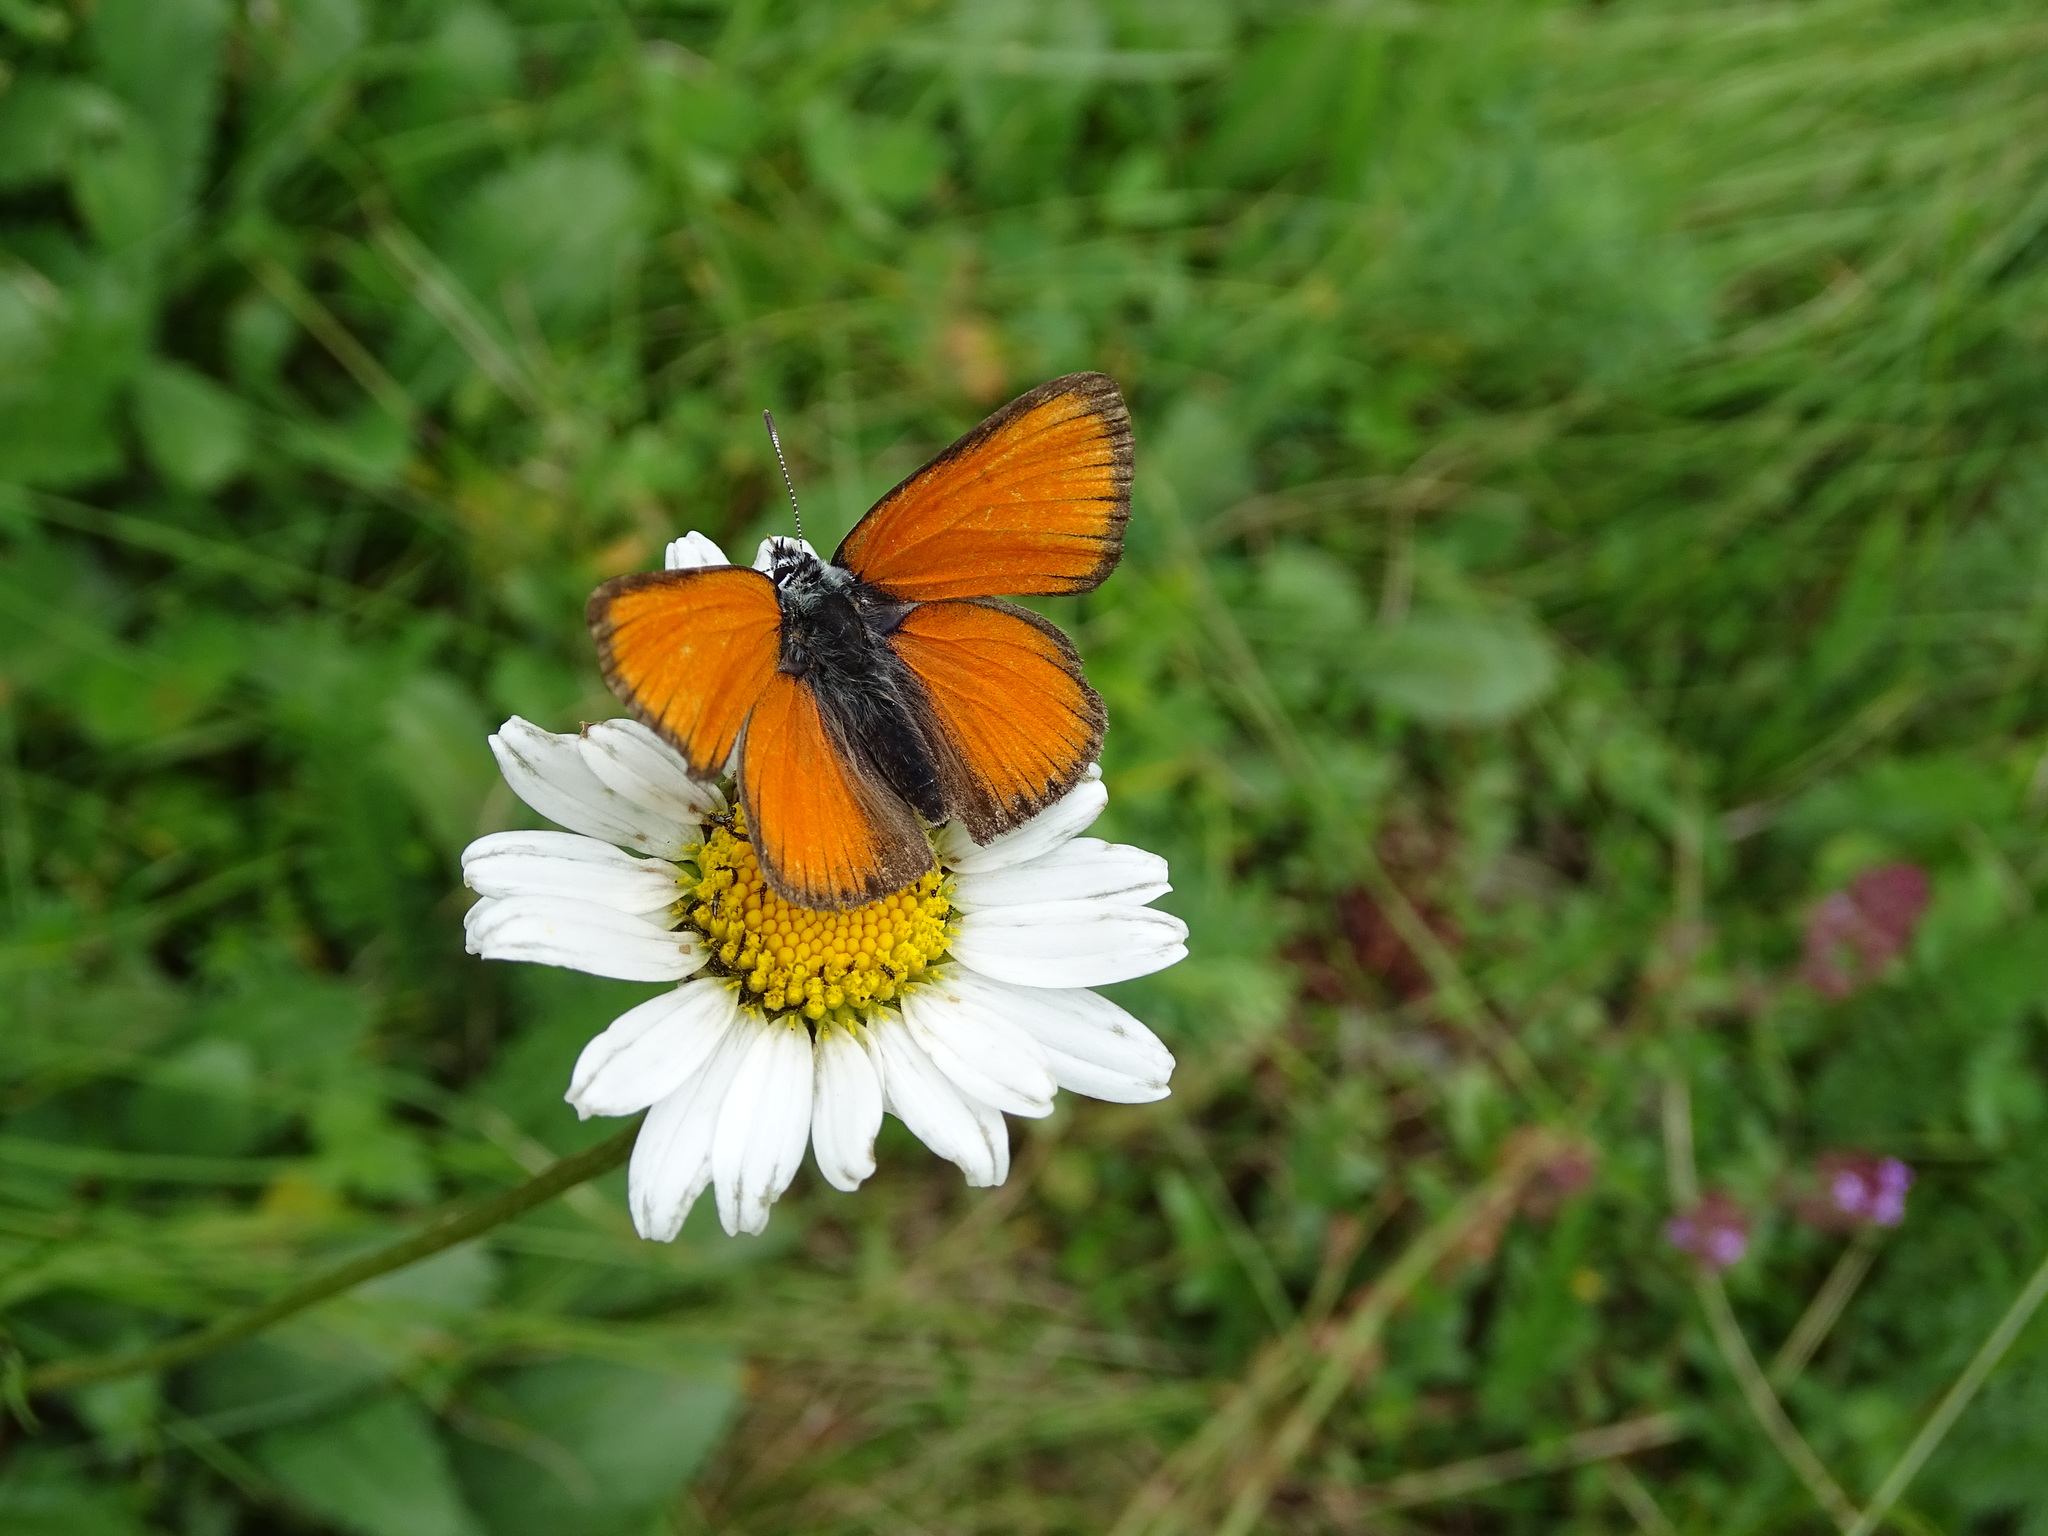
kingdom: Animalia
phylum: Arthropoda
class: Insecta
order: Lepidoptera
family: Lycaenidae
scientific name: Lycaenidae
